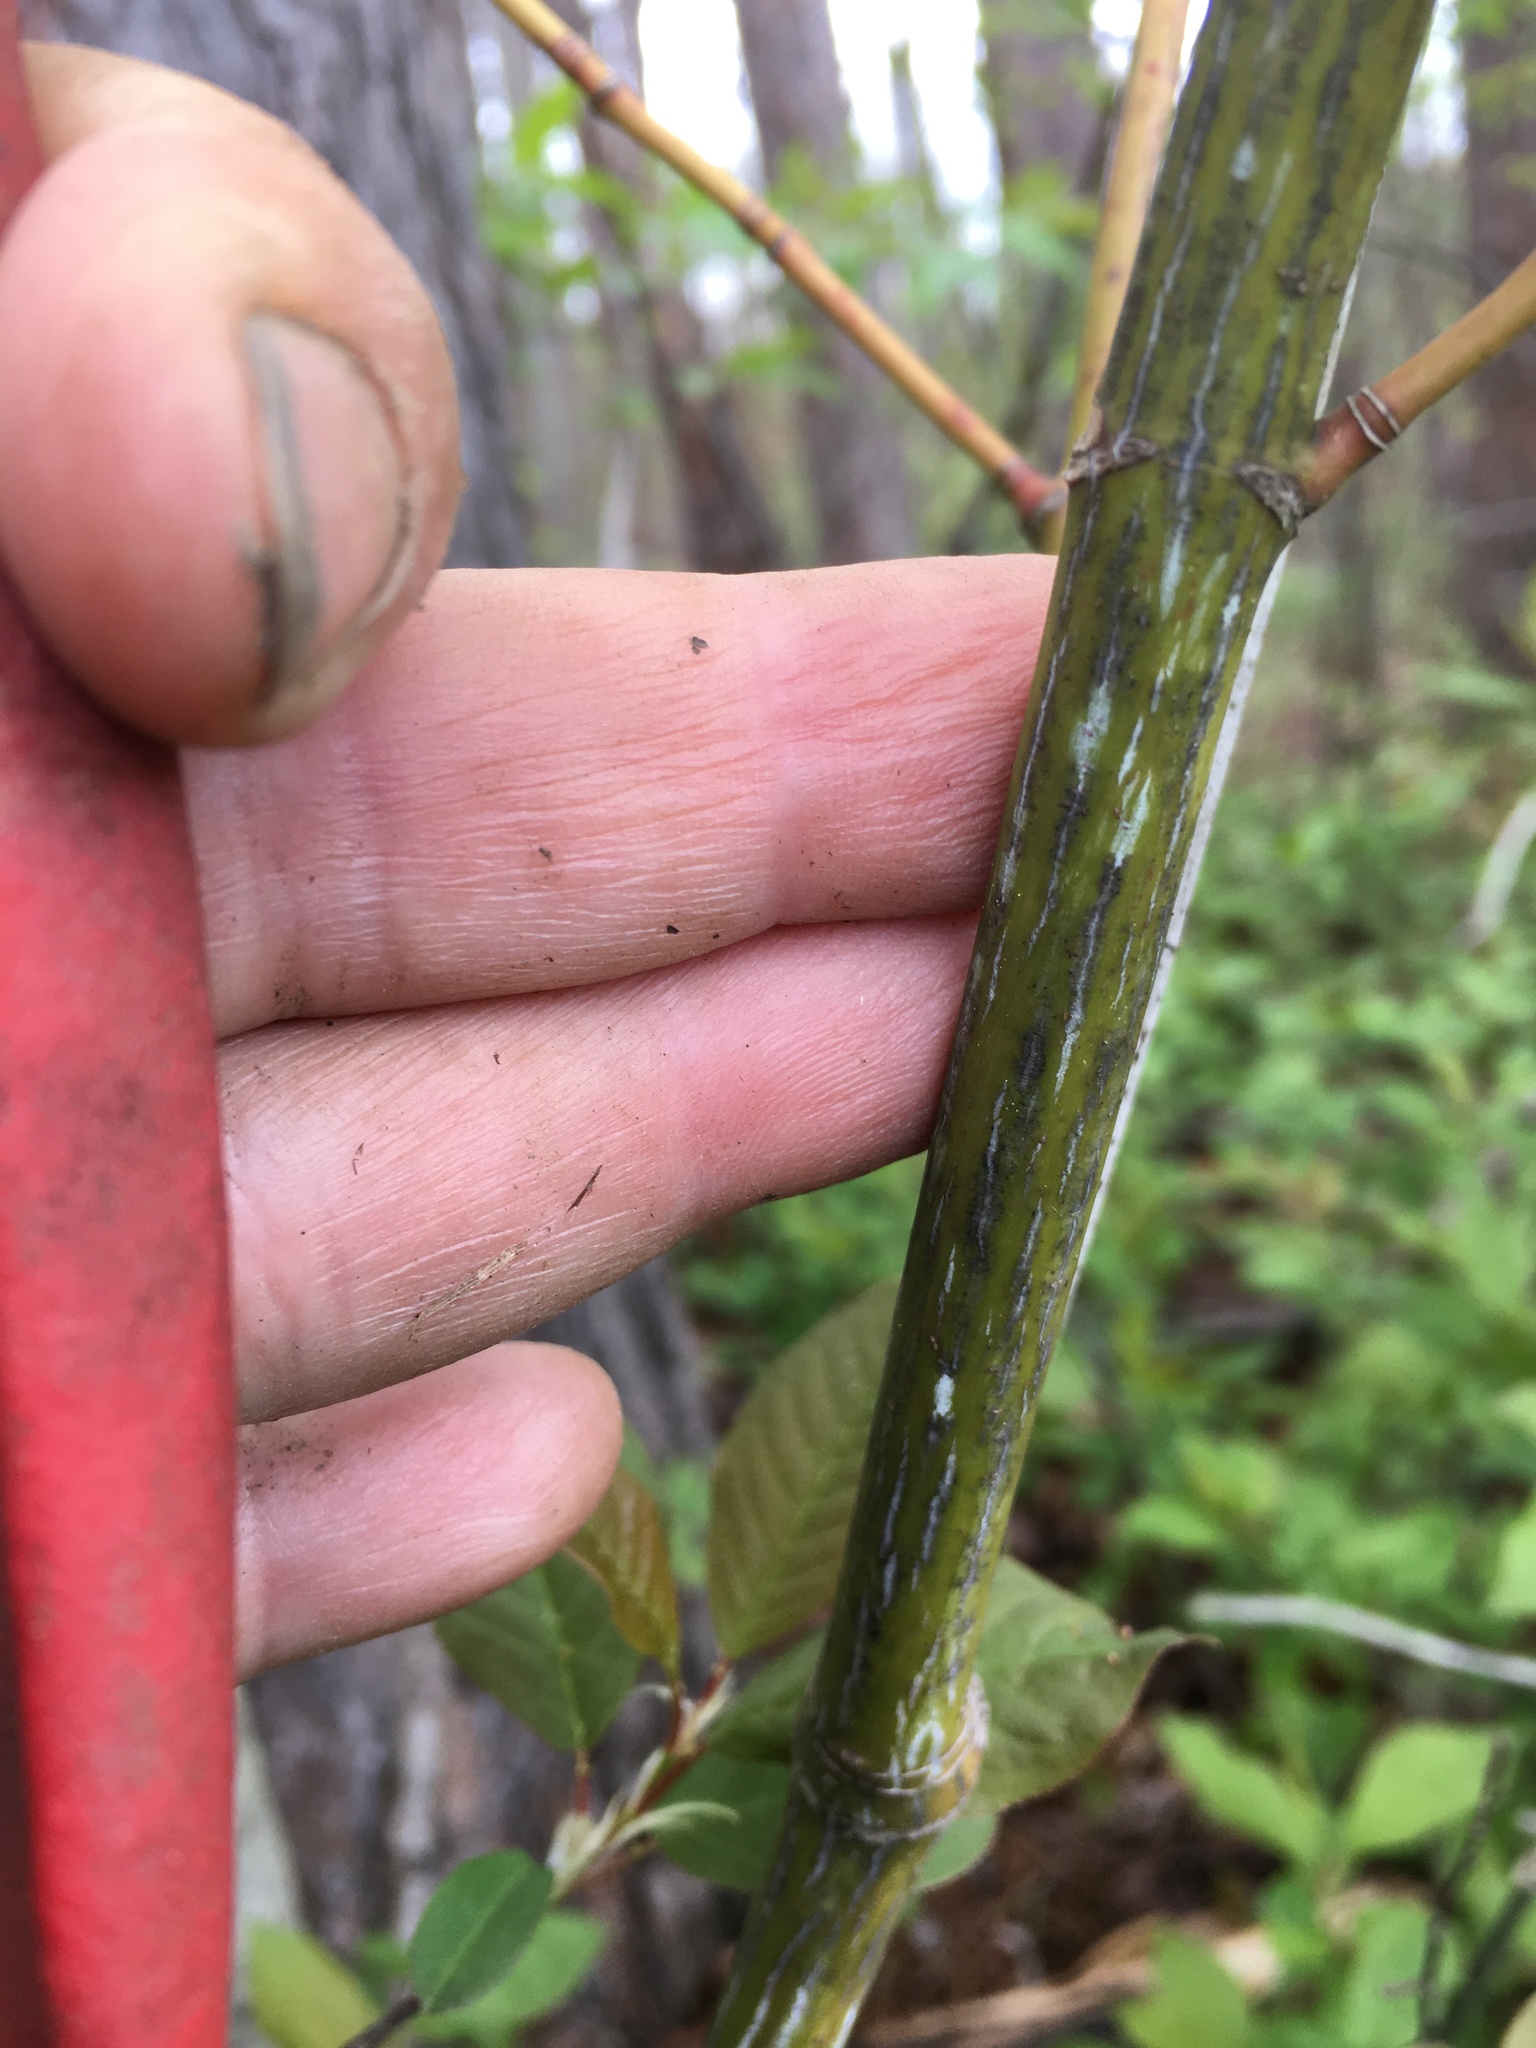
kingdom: Plantae
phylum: Tracheophyta
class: Magnoliopsida
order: Sapindales
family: Sapindaceae
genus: Acer
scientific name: Acer pensylvanicum
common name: Moosewood
